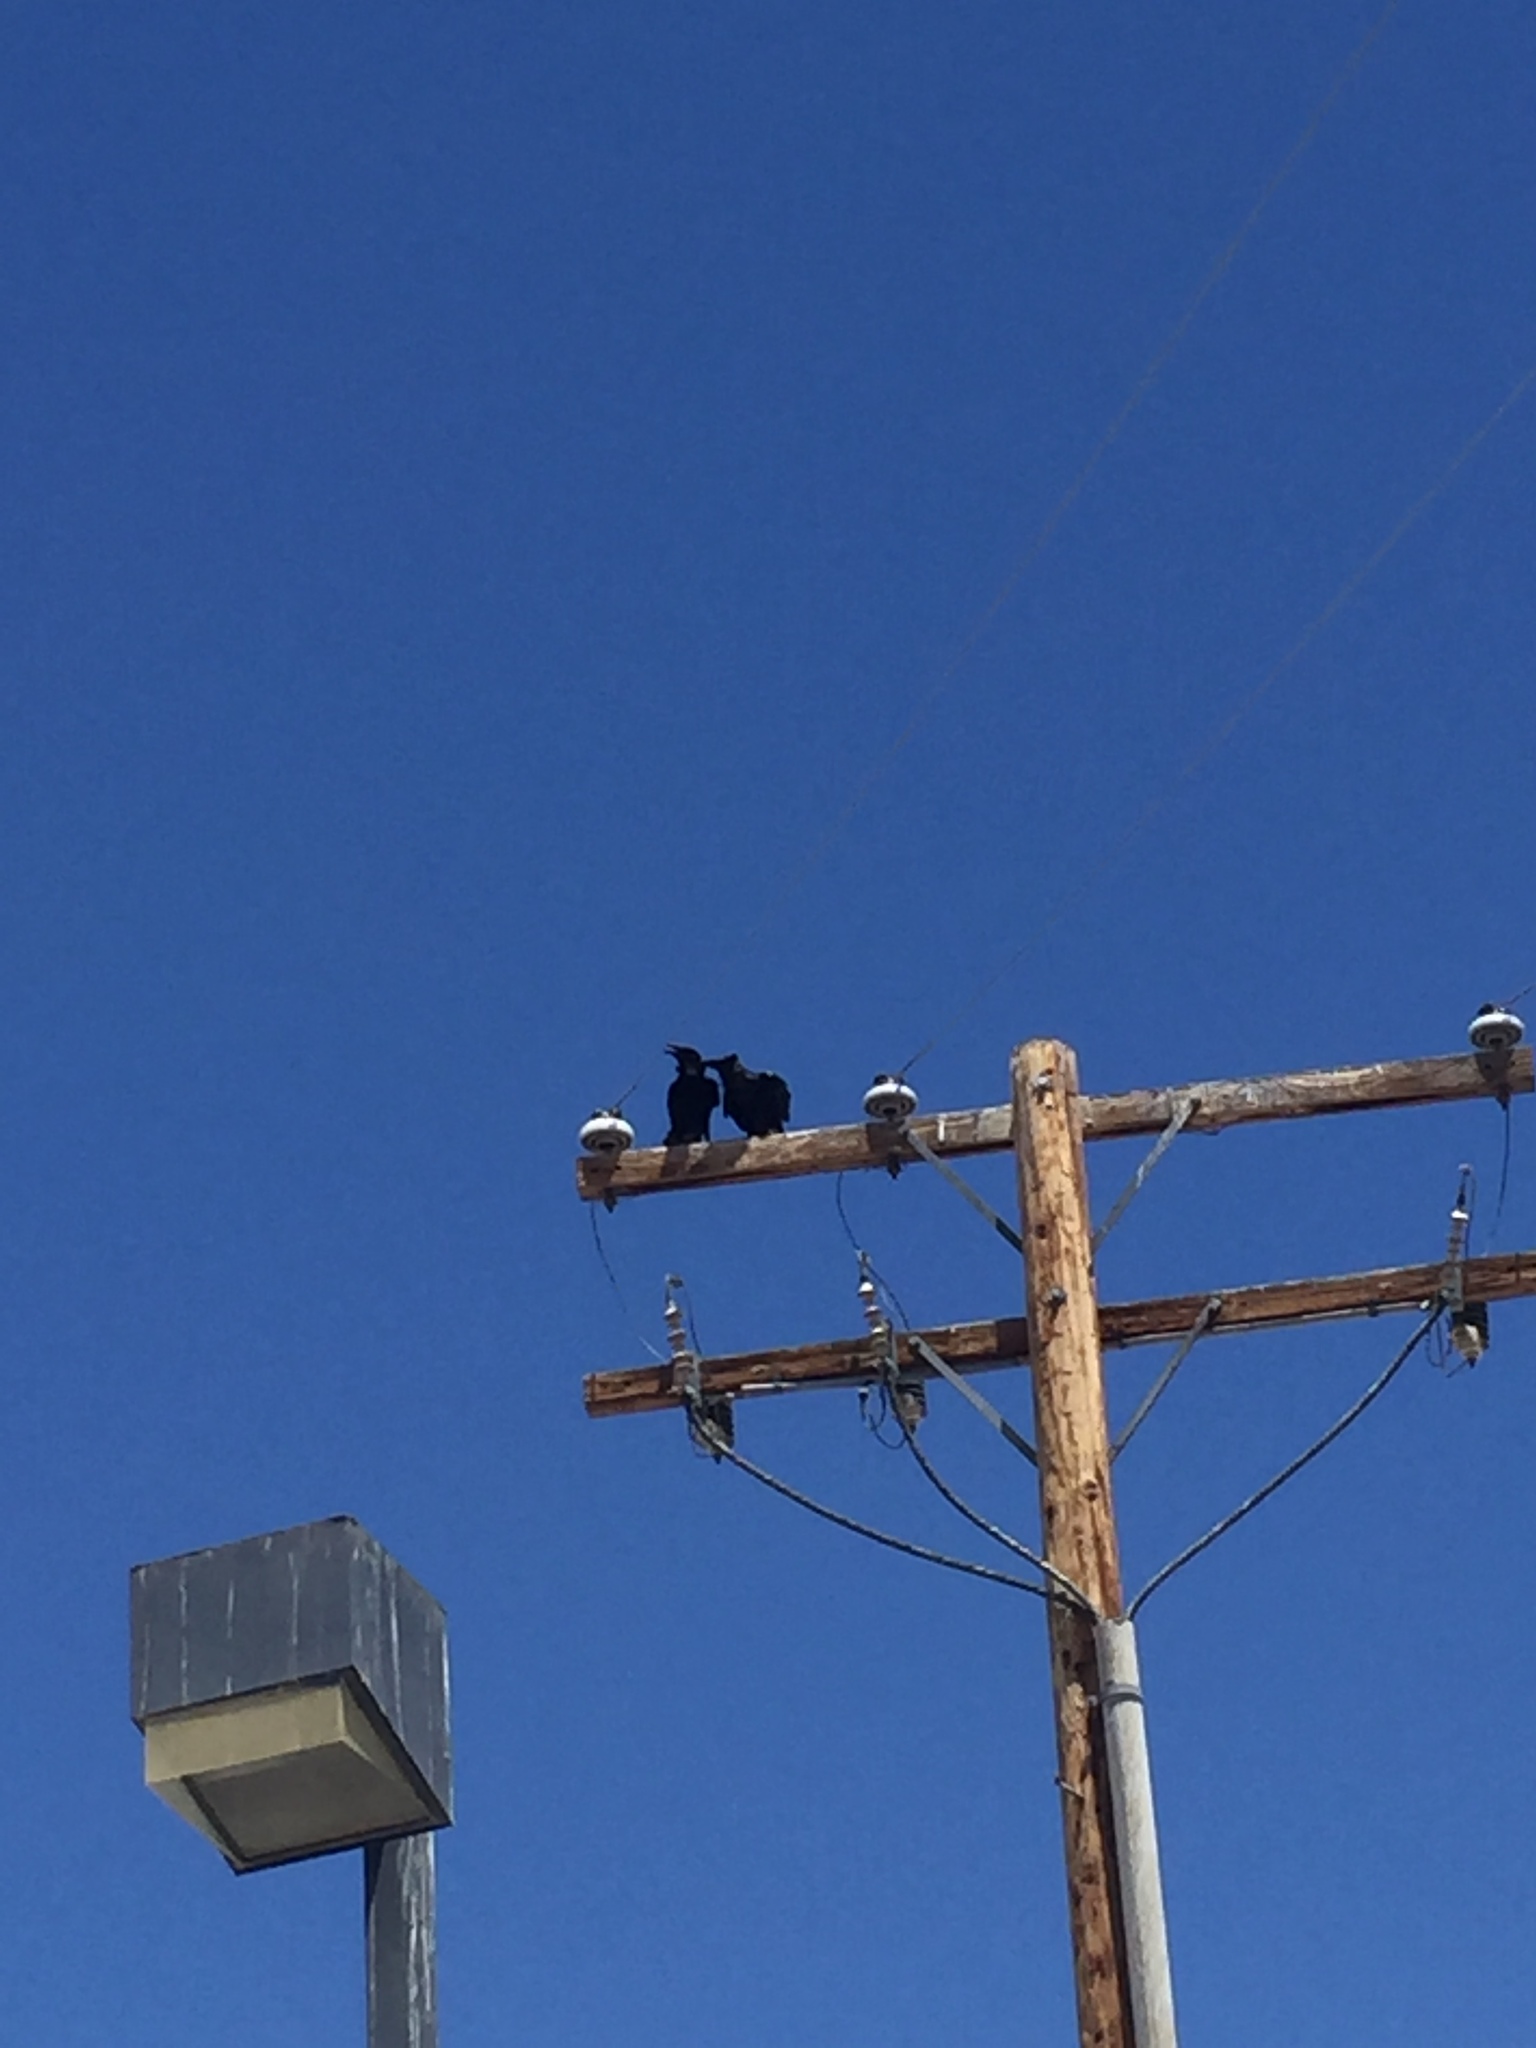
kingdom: Animalia
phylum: Chordata
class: Aves
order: Passeriformes
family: Corvidae
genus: Corvus
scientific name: Corvus corax
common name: Common raven
